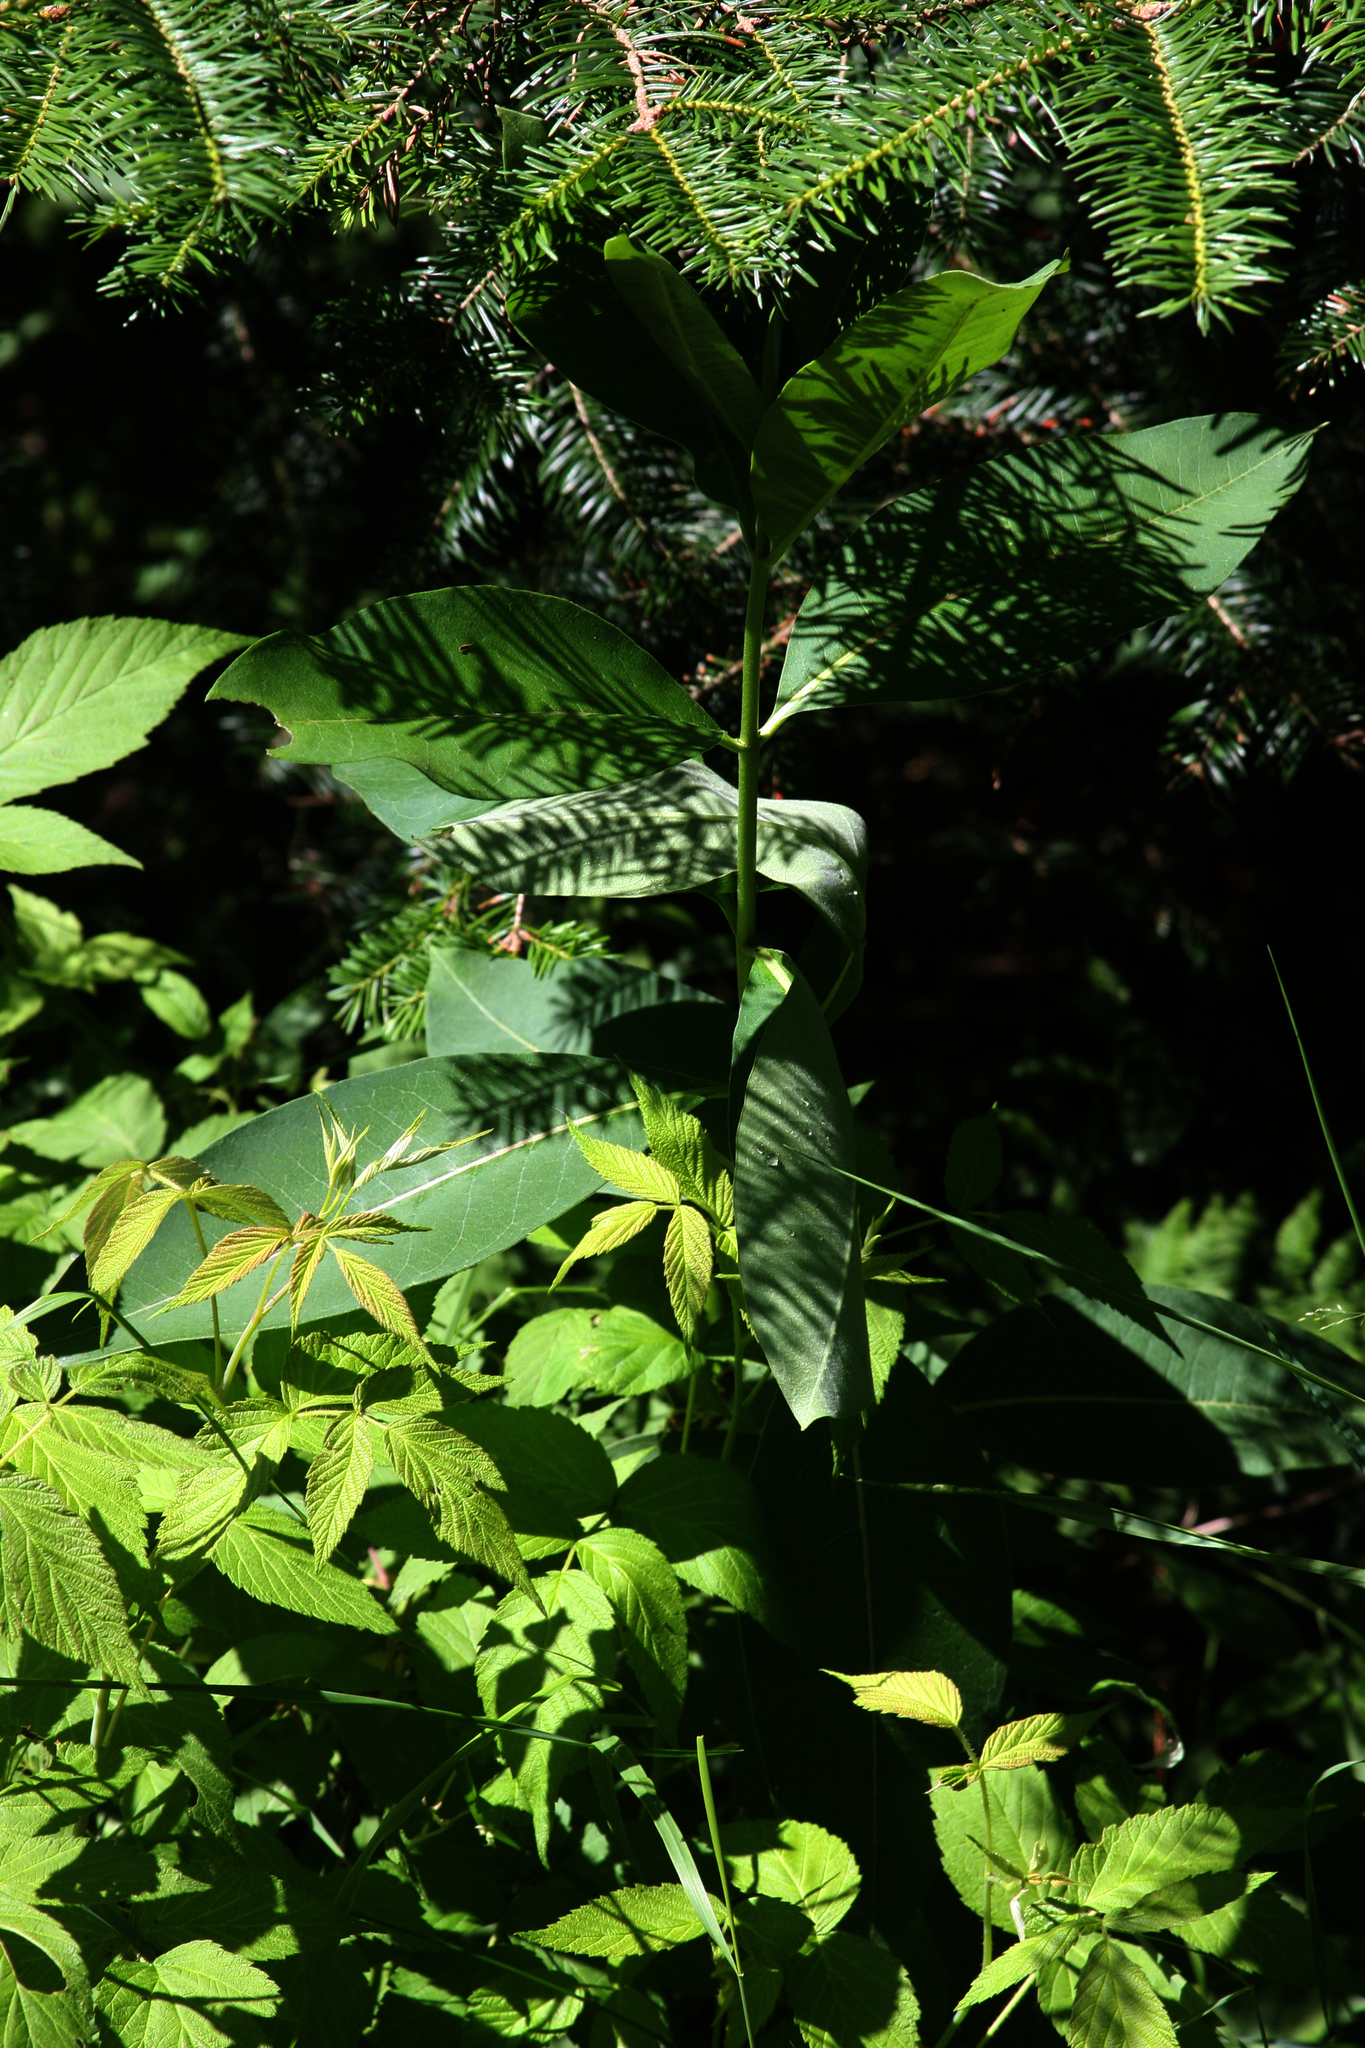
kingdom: Plantae
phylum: Tracheophyta
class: Magnoliopsida
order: Gentianales
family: Apocynaceae
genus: Asclepias
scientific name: Asclepias syriaca
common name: Common milkweed
